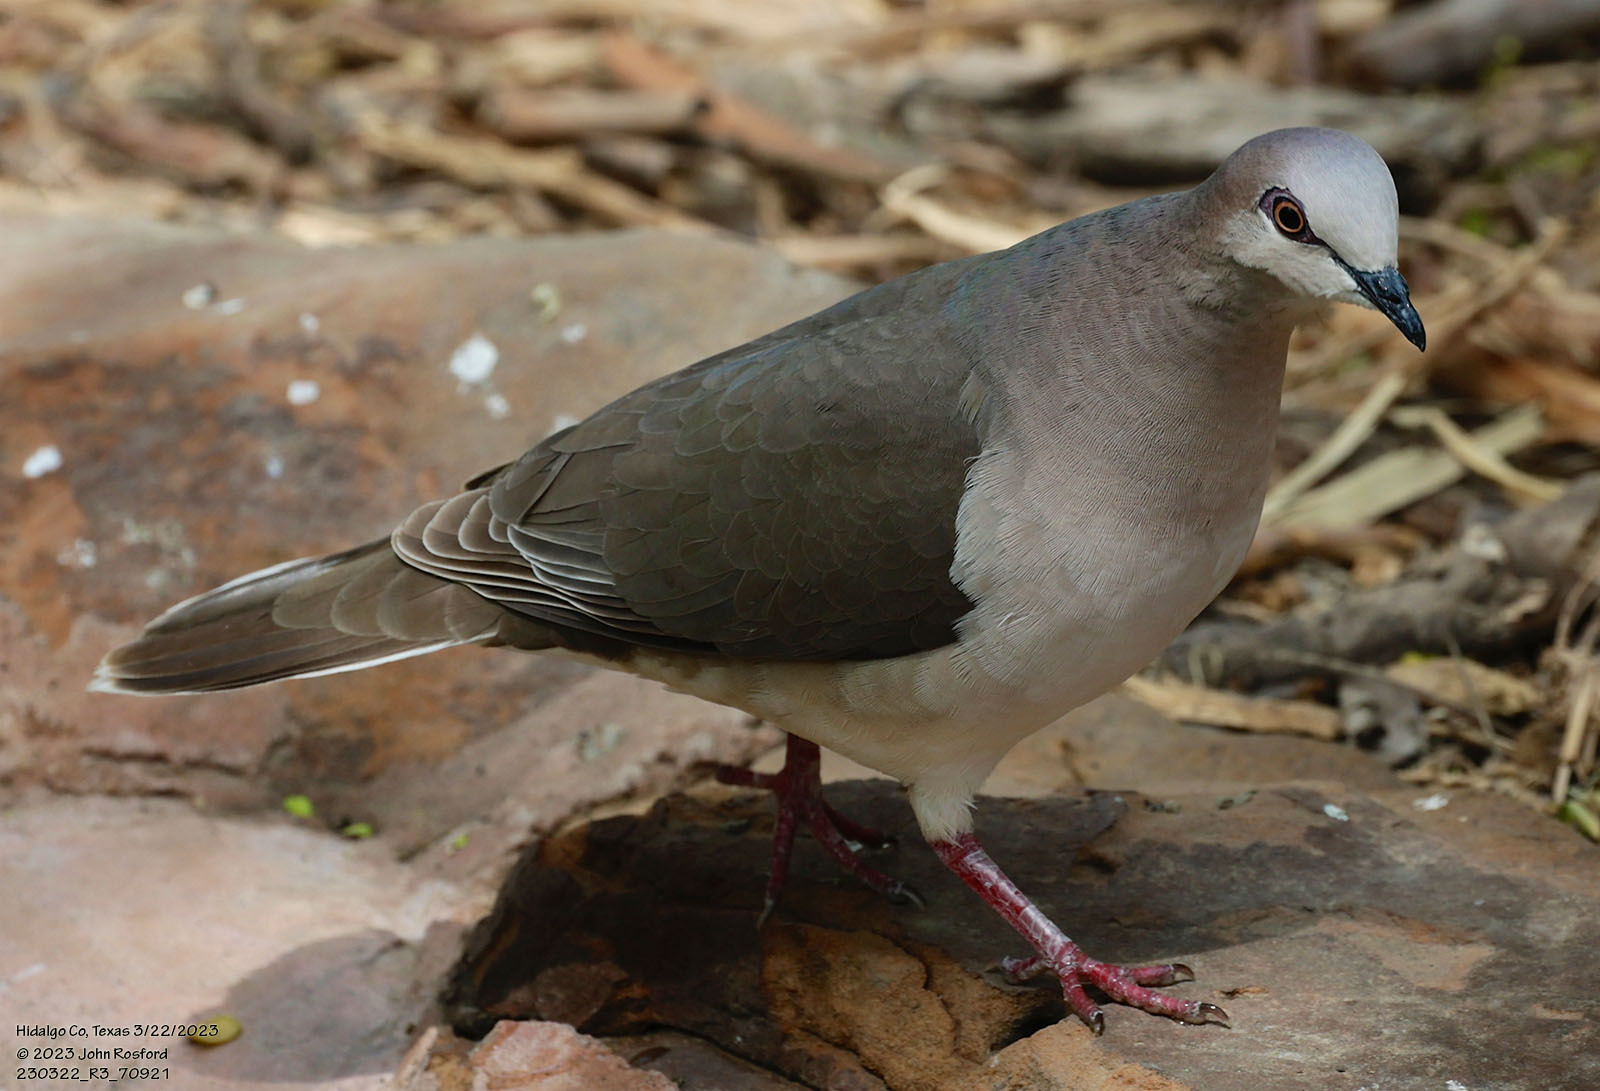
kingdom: Animalia
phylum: Chordata
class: Aves
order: Columbiformes
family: Columbidae
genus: Leptotila
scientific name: Leptotila verreauxi
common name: White-tipped dove
